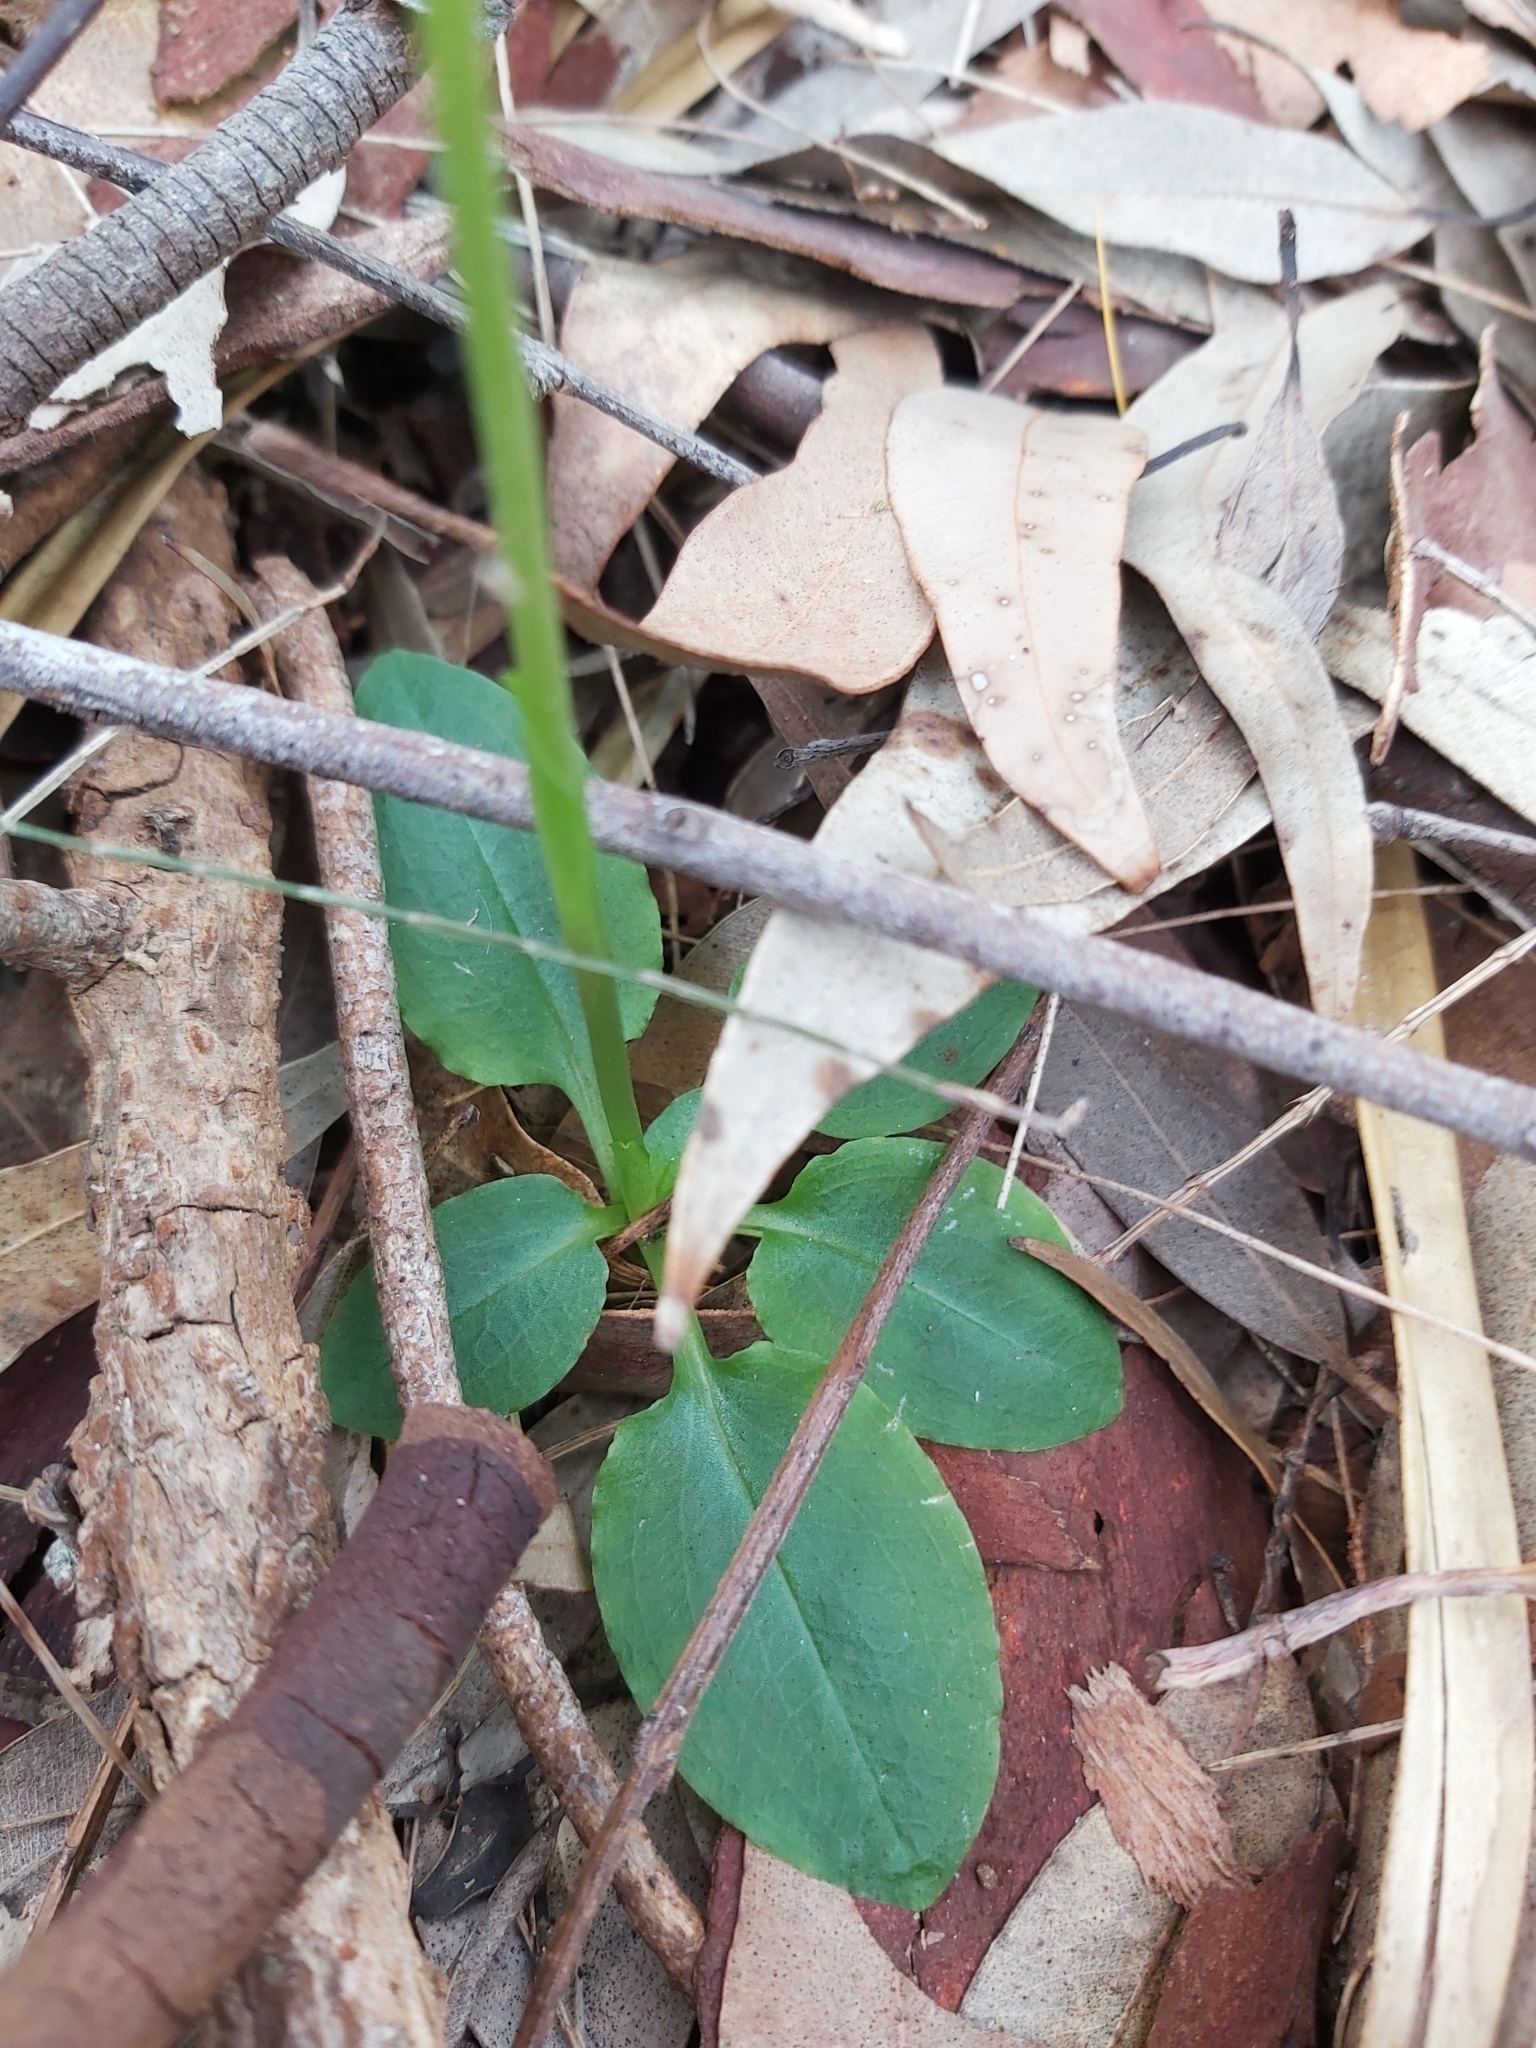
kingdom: Plantae
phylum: Tracheophyta
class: Liliopsida
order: Asparagales
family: Orchidaceae
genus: Pterostylis
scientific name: Pterostylis nutans
